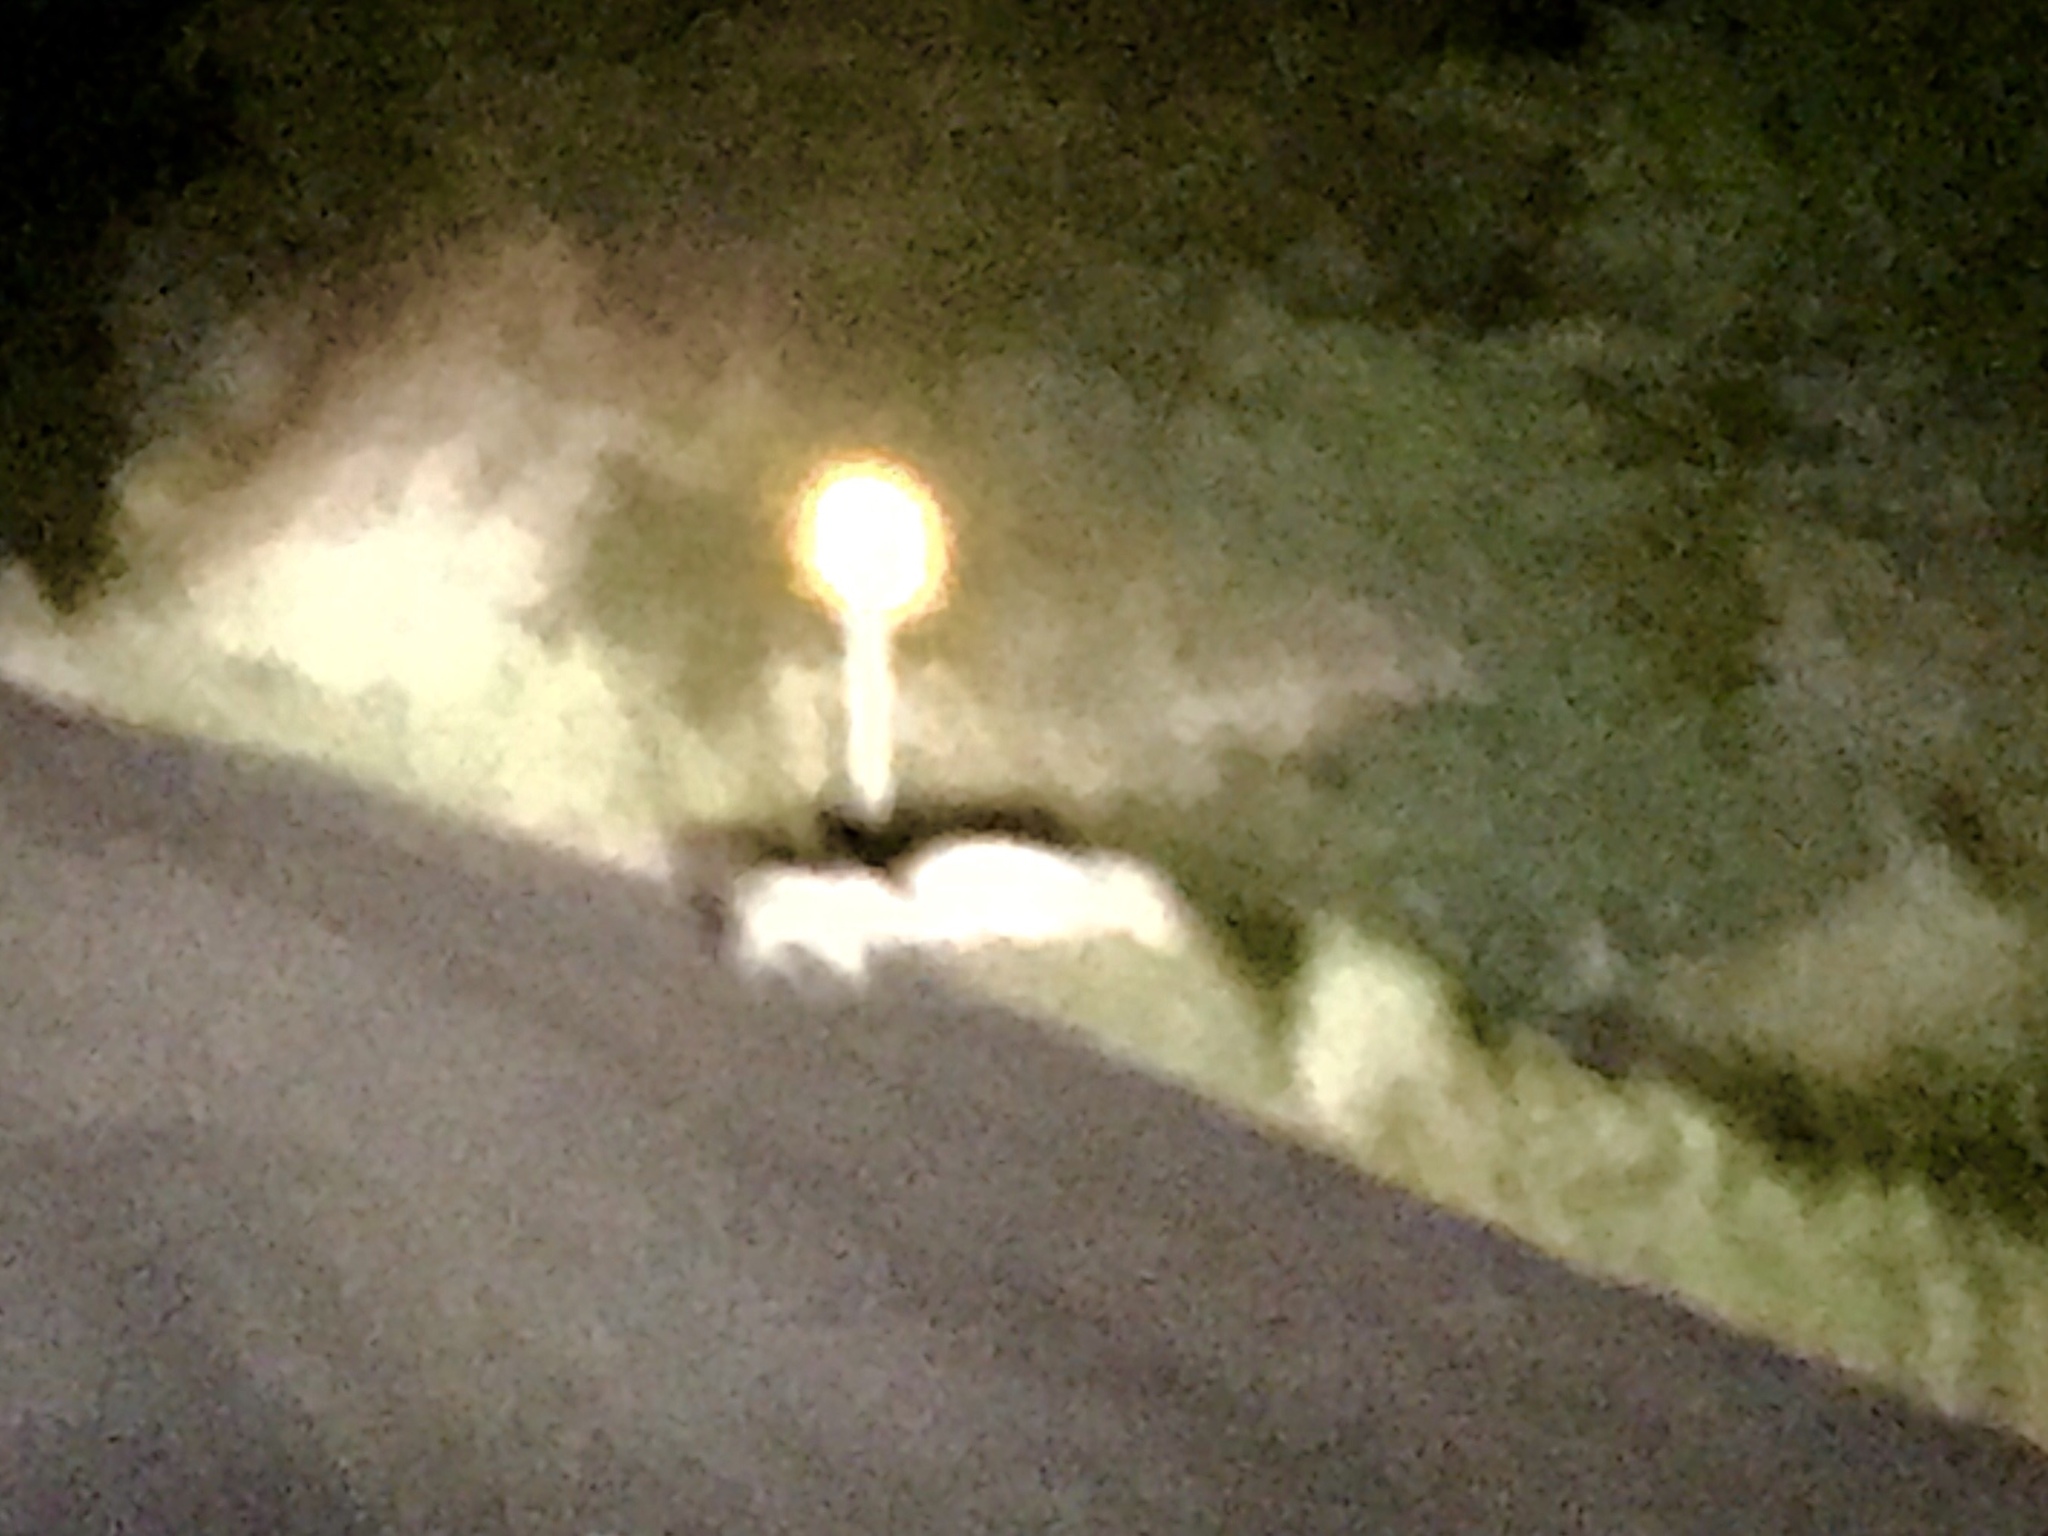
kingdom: Animalia
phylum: Chordata
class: Mammalia
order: Artiodactyla
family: Tayassuidae
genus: Pecari
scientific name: Pecari tajacu
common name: Collared peccary
